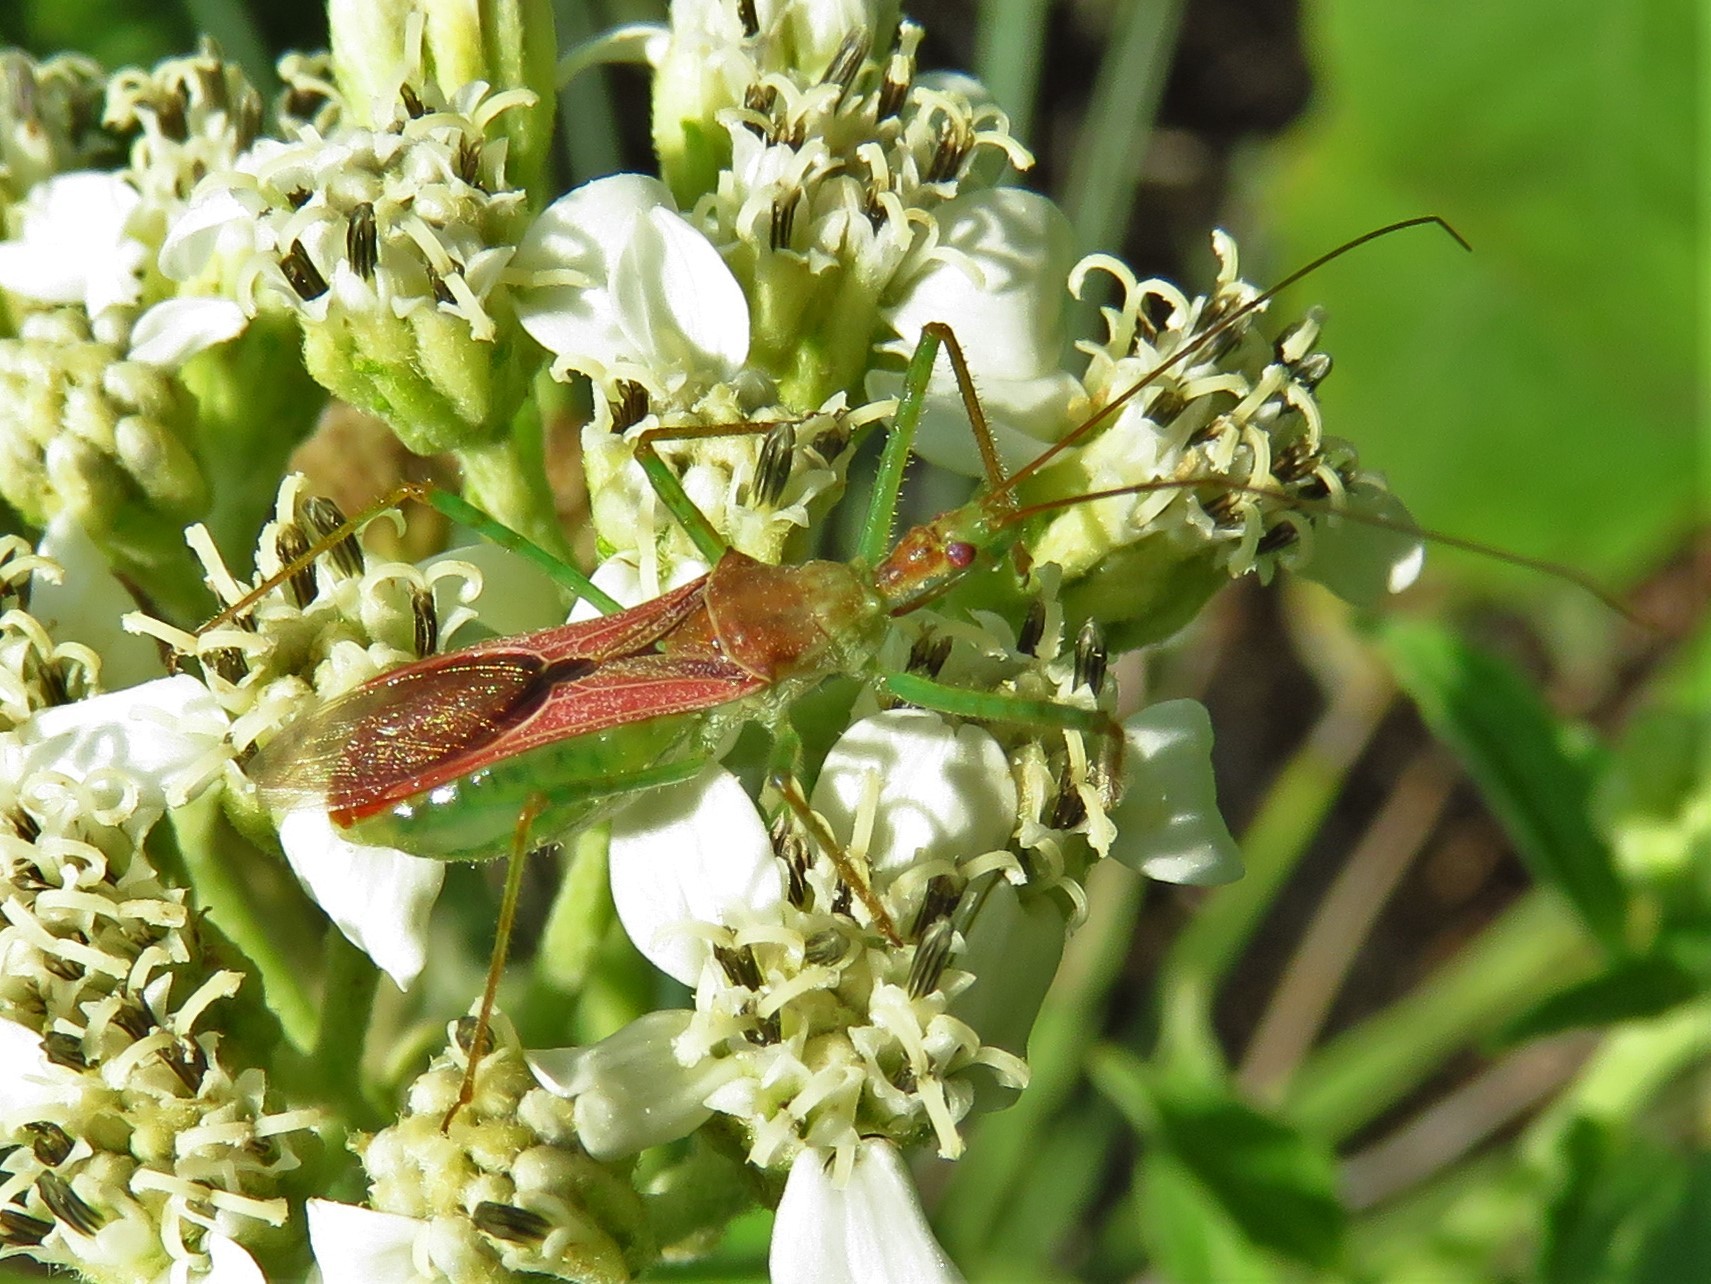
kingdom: Animalia
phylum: Arthropoda
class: Insecta
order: Hemiptera
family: Reduviidae
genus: Zelus
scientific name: Zelus renardii
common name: Assassin bug
